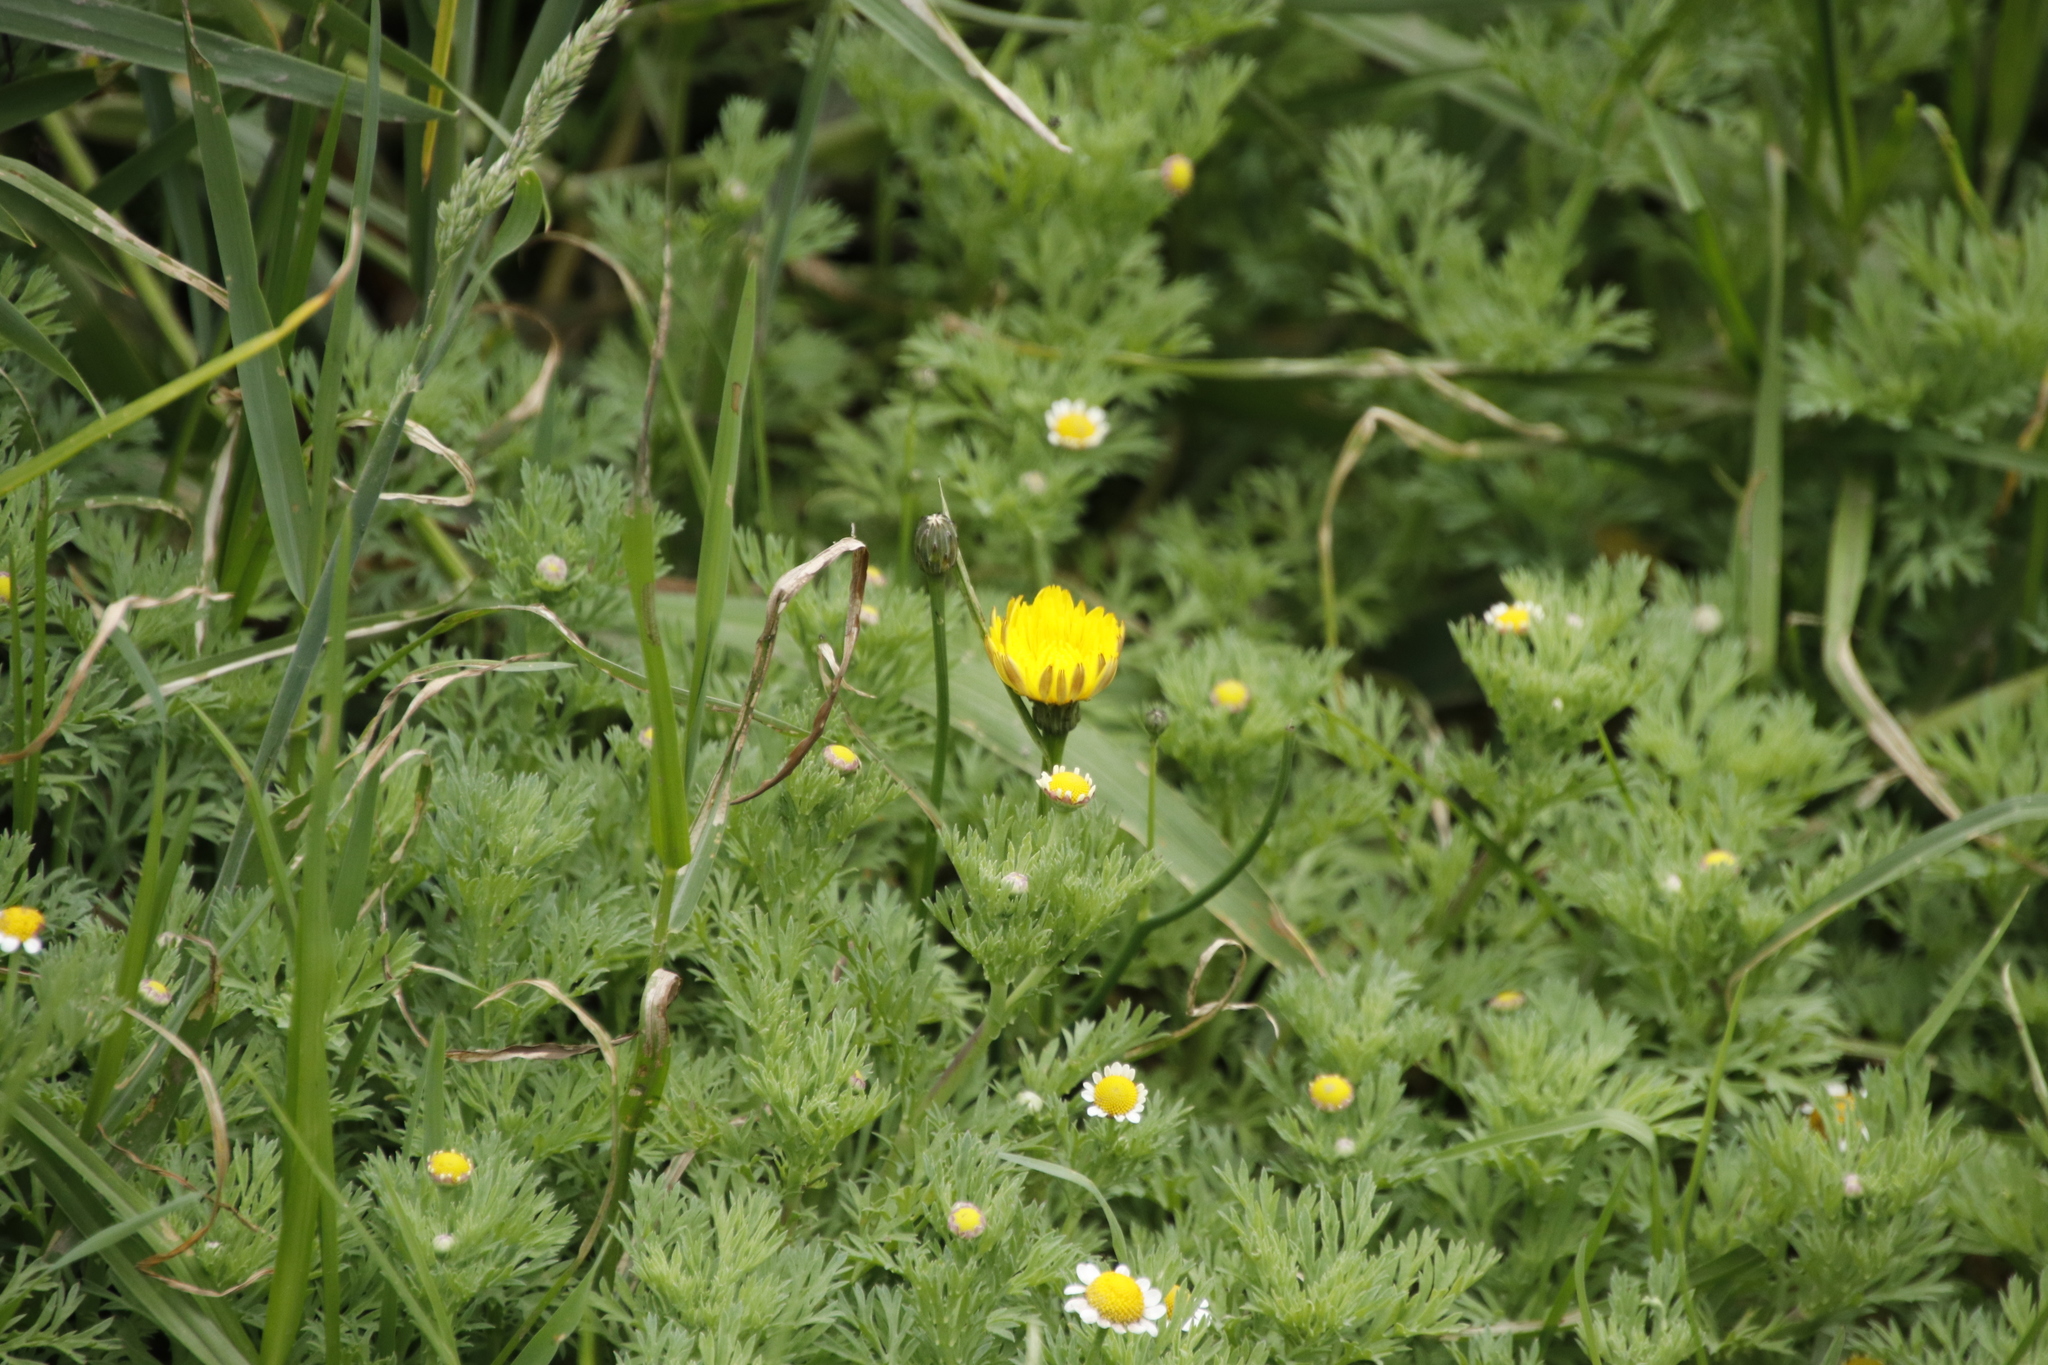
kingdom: Plantae
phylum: Tracheophyta
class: Magnoliopsida
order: Asterales
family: Asteraceae
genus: Cotula
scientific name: Cotula nigellifolia
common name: Staggerweed
